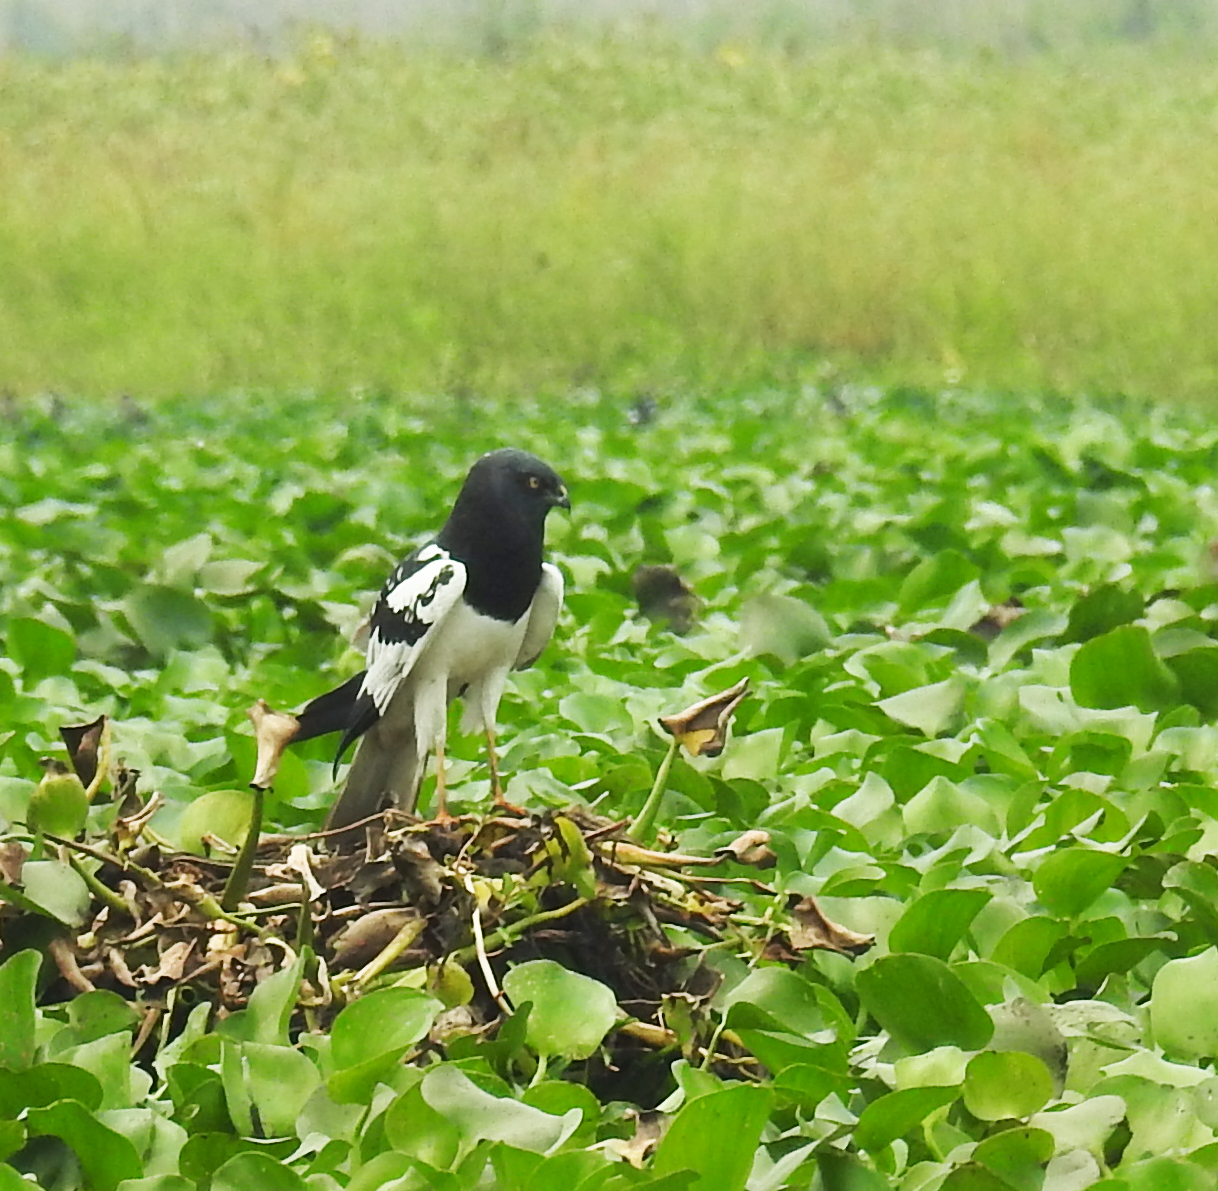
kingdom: Animalia
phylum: Chordata
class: Aves
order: Accipitriformes
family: Accipitridae
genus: Circus
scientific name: Circus melanoleucos
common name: Pied harrier
